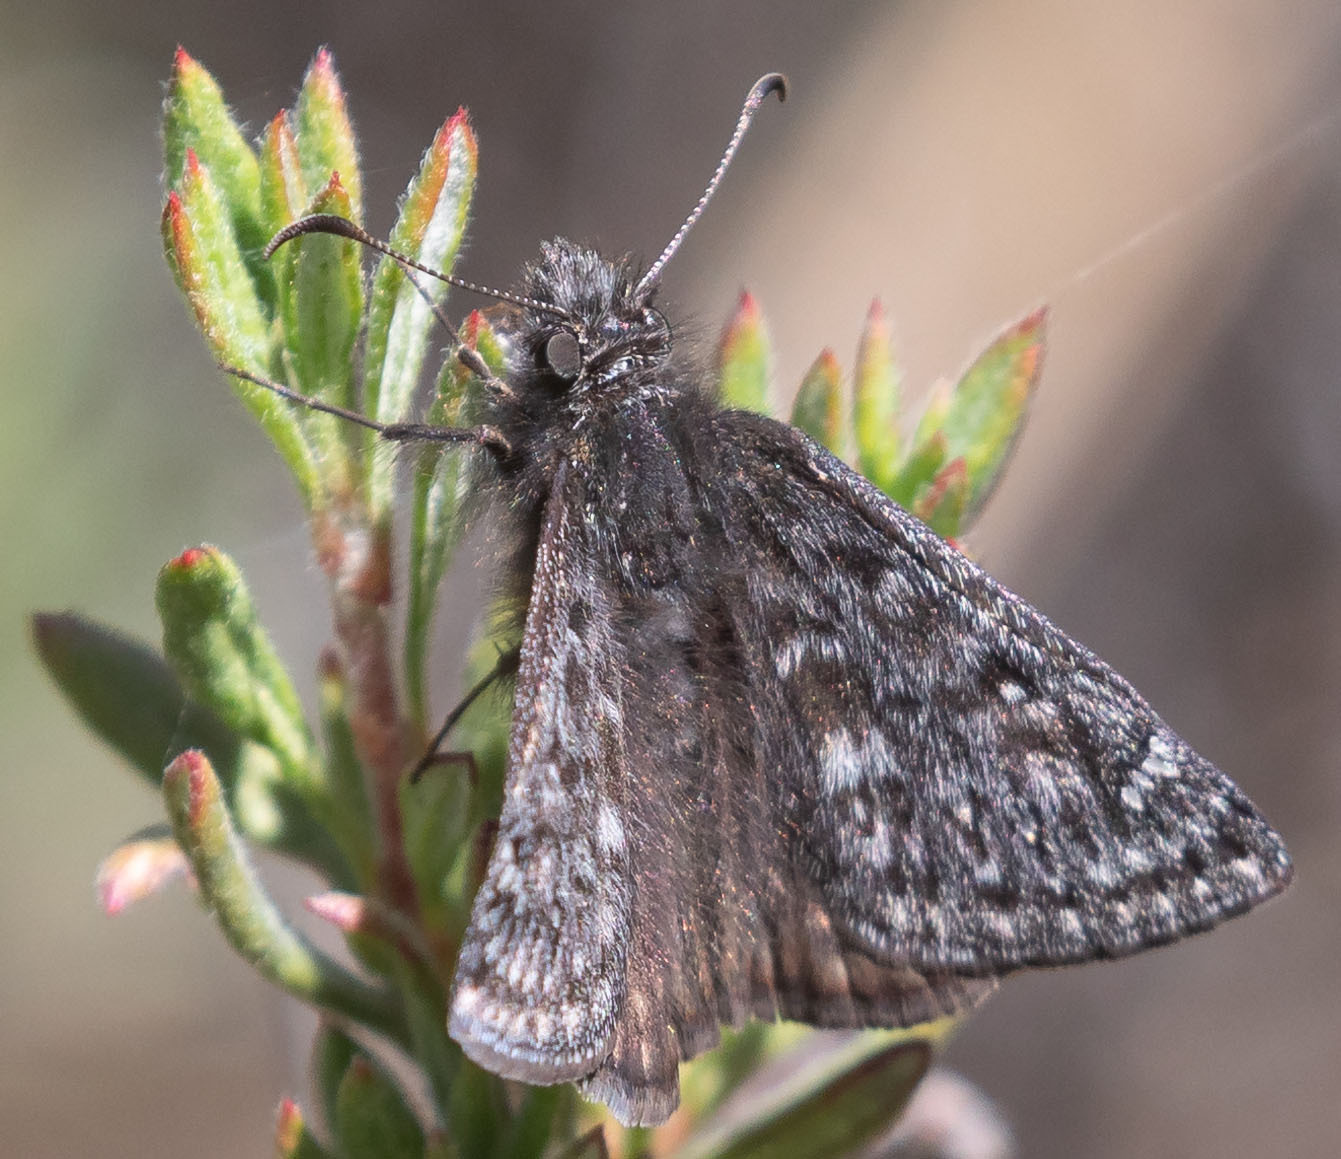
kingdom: Animalia
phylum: Arthropoda
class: Insecta
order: Lepidoptera
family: Hesperiidae
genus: Erynnis
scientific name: Erynnis propertius
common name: Propertius duskywing
